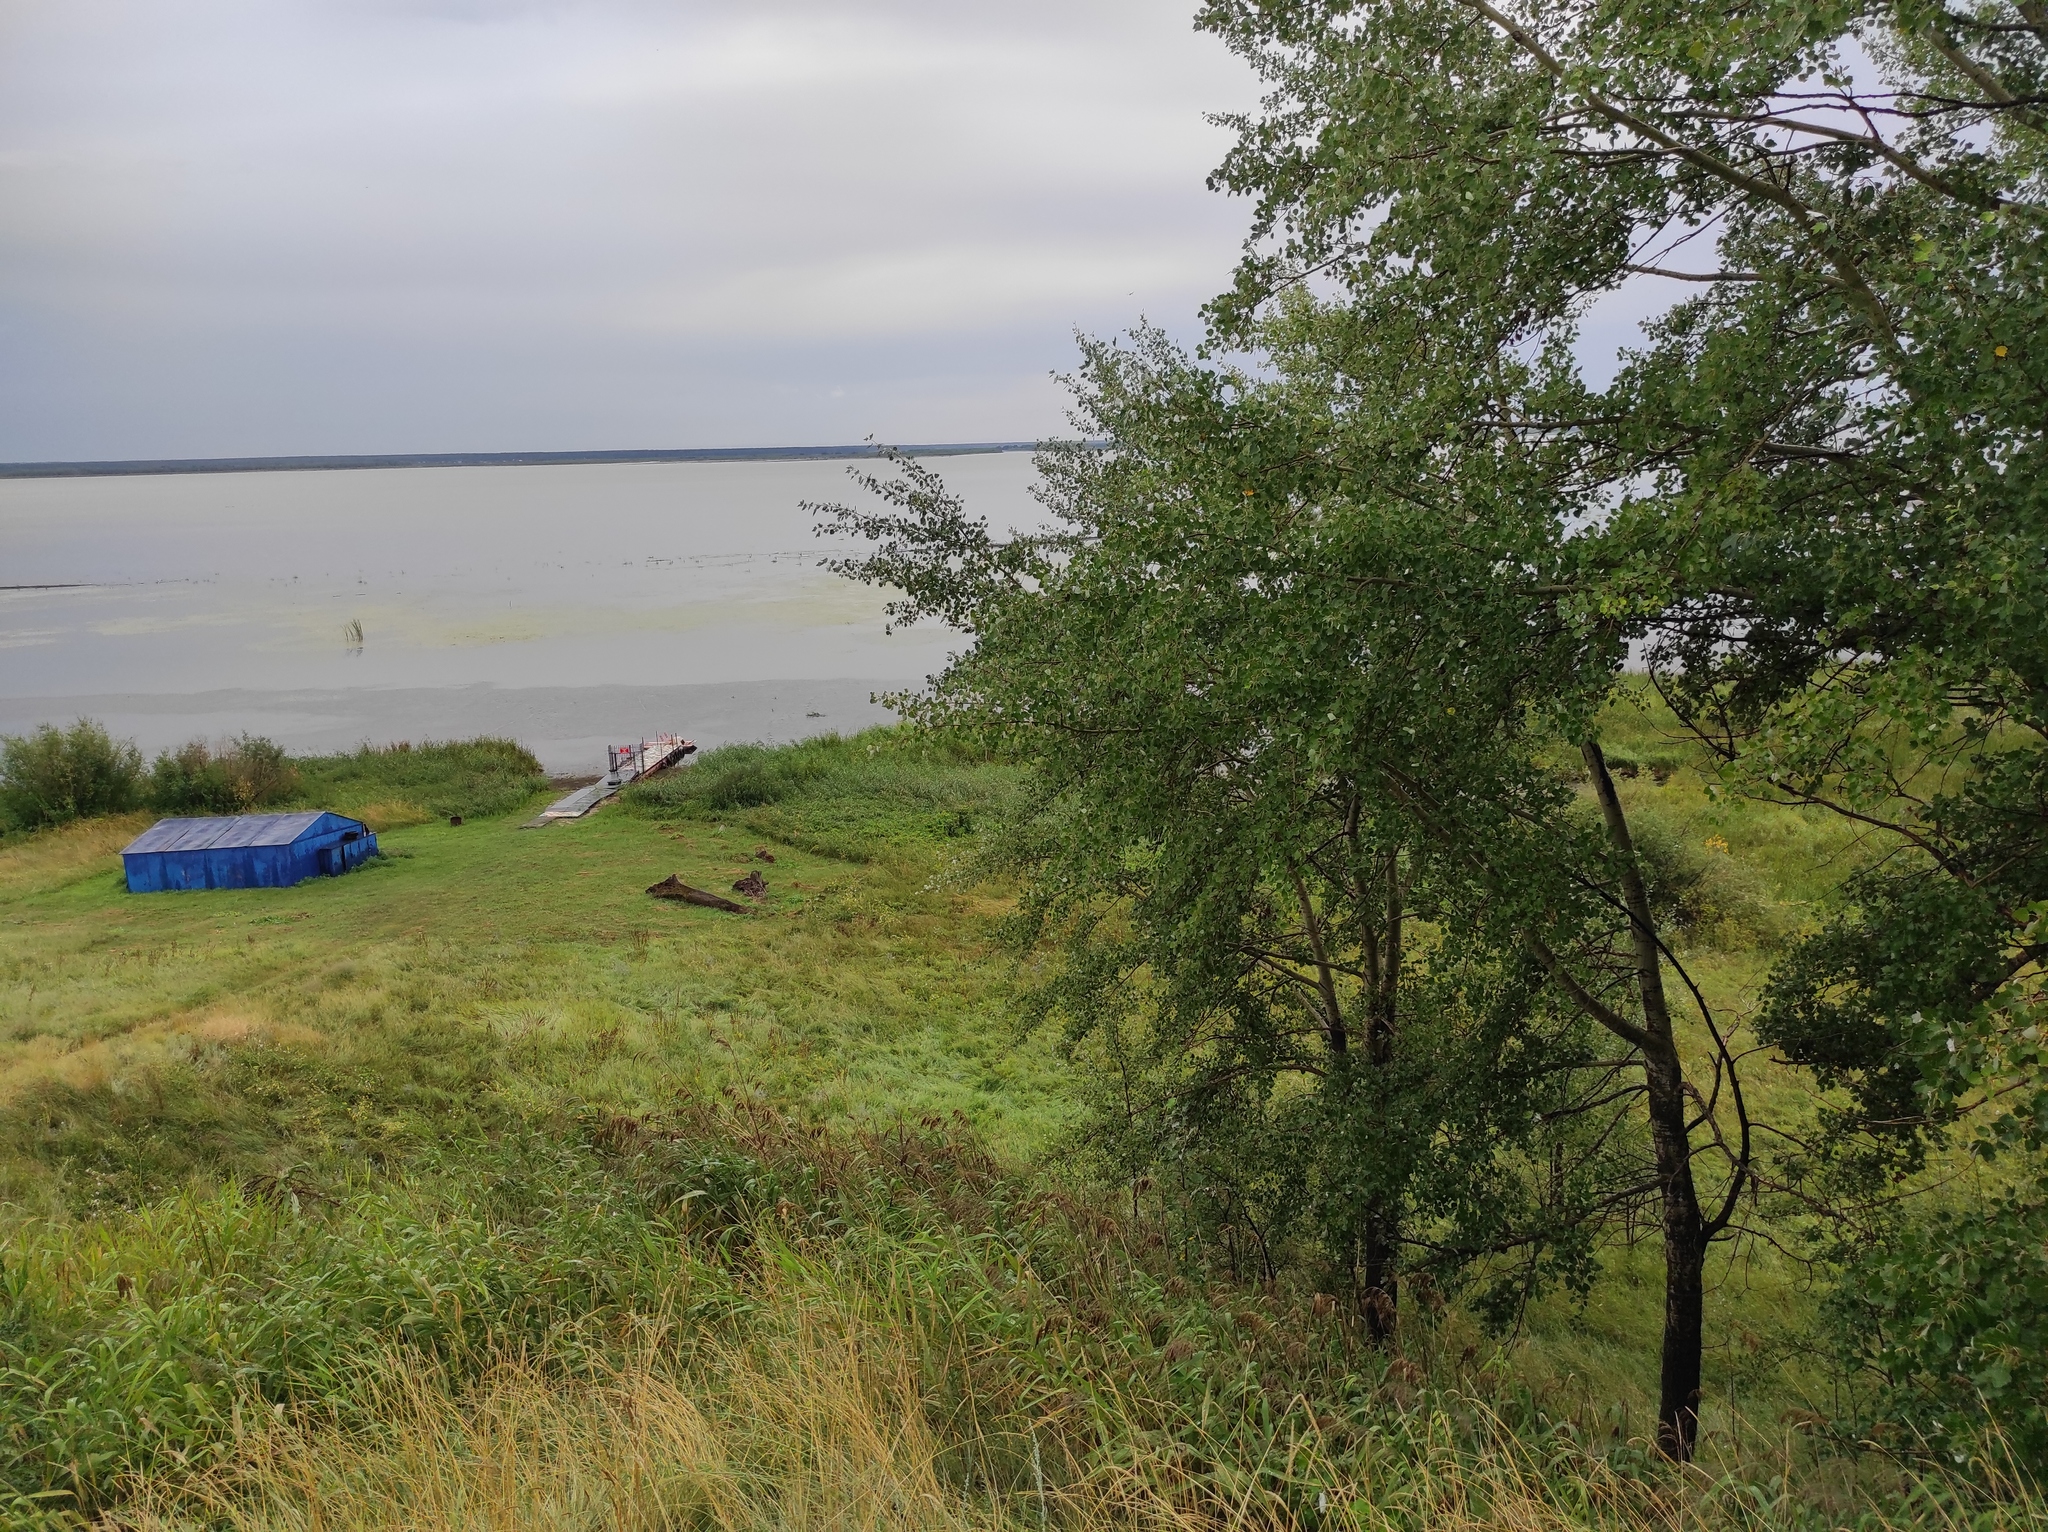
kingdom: Plantae
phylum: Tracheophyta
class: Magnoliopsida
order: Malpighiales
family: Salicaceae
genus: Populus
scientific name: Populus tremula
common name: European aspen
